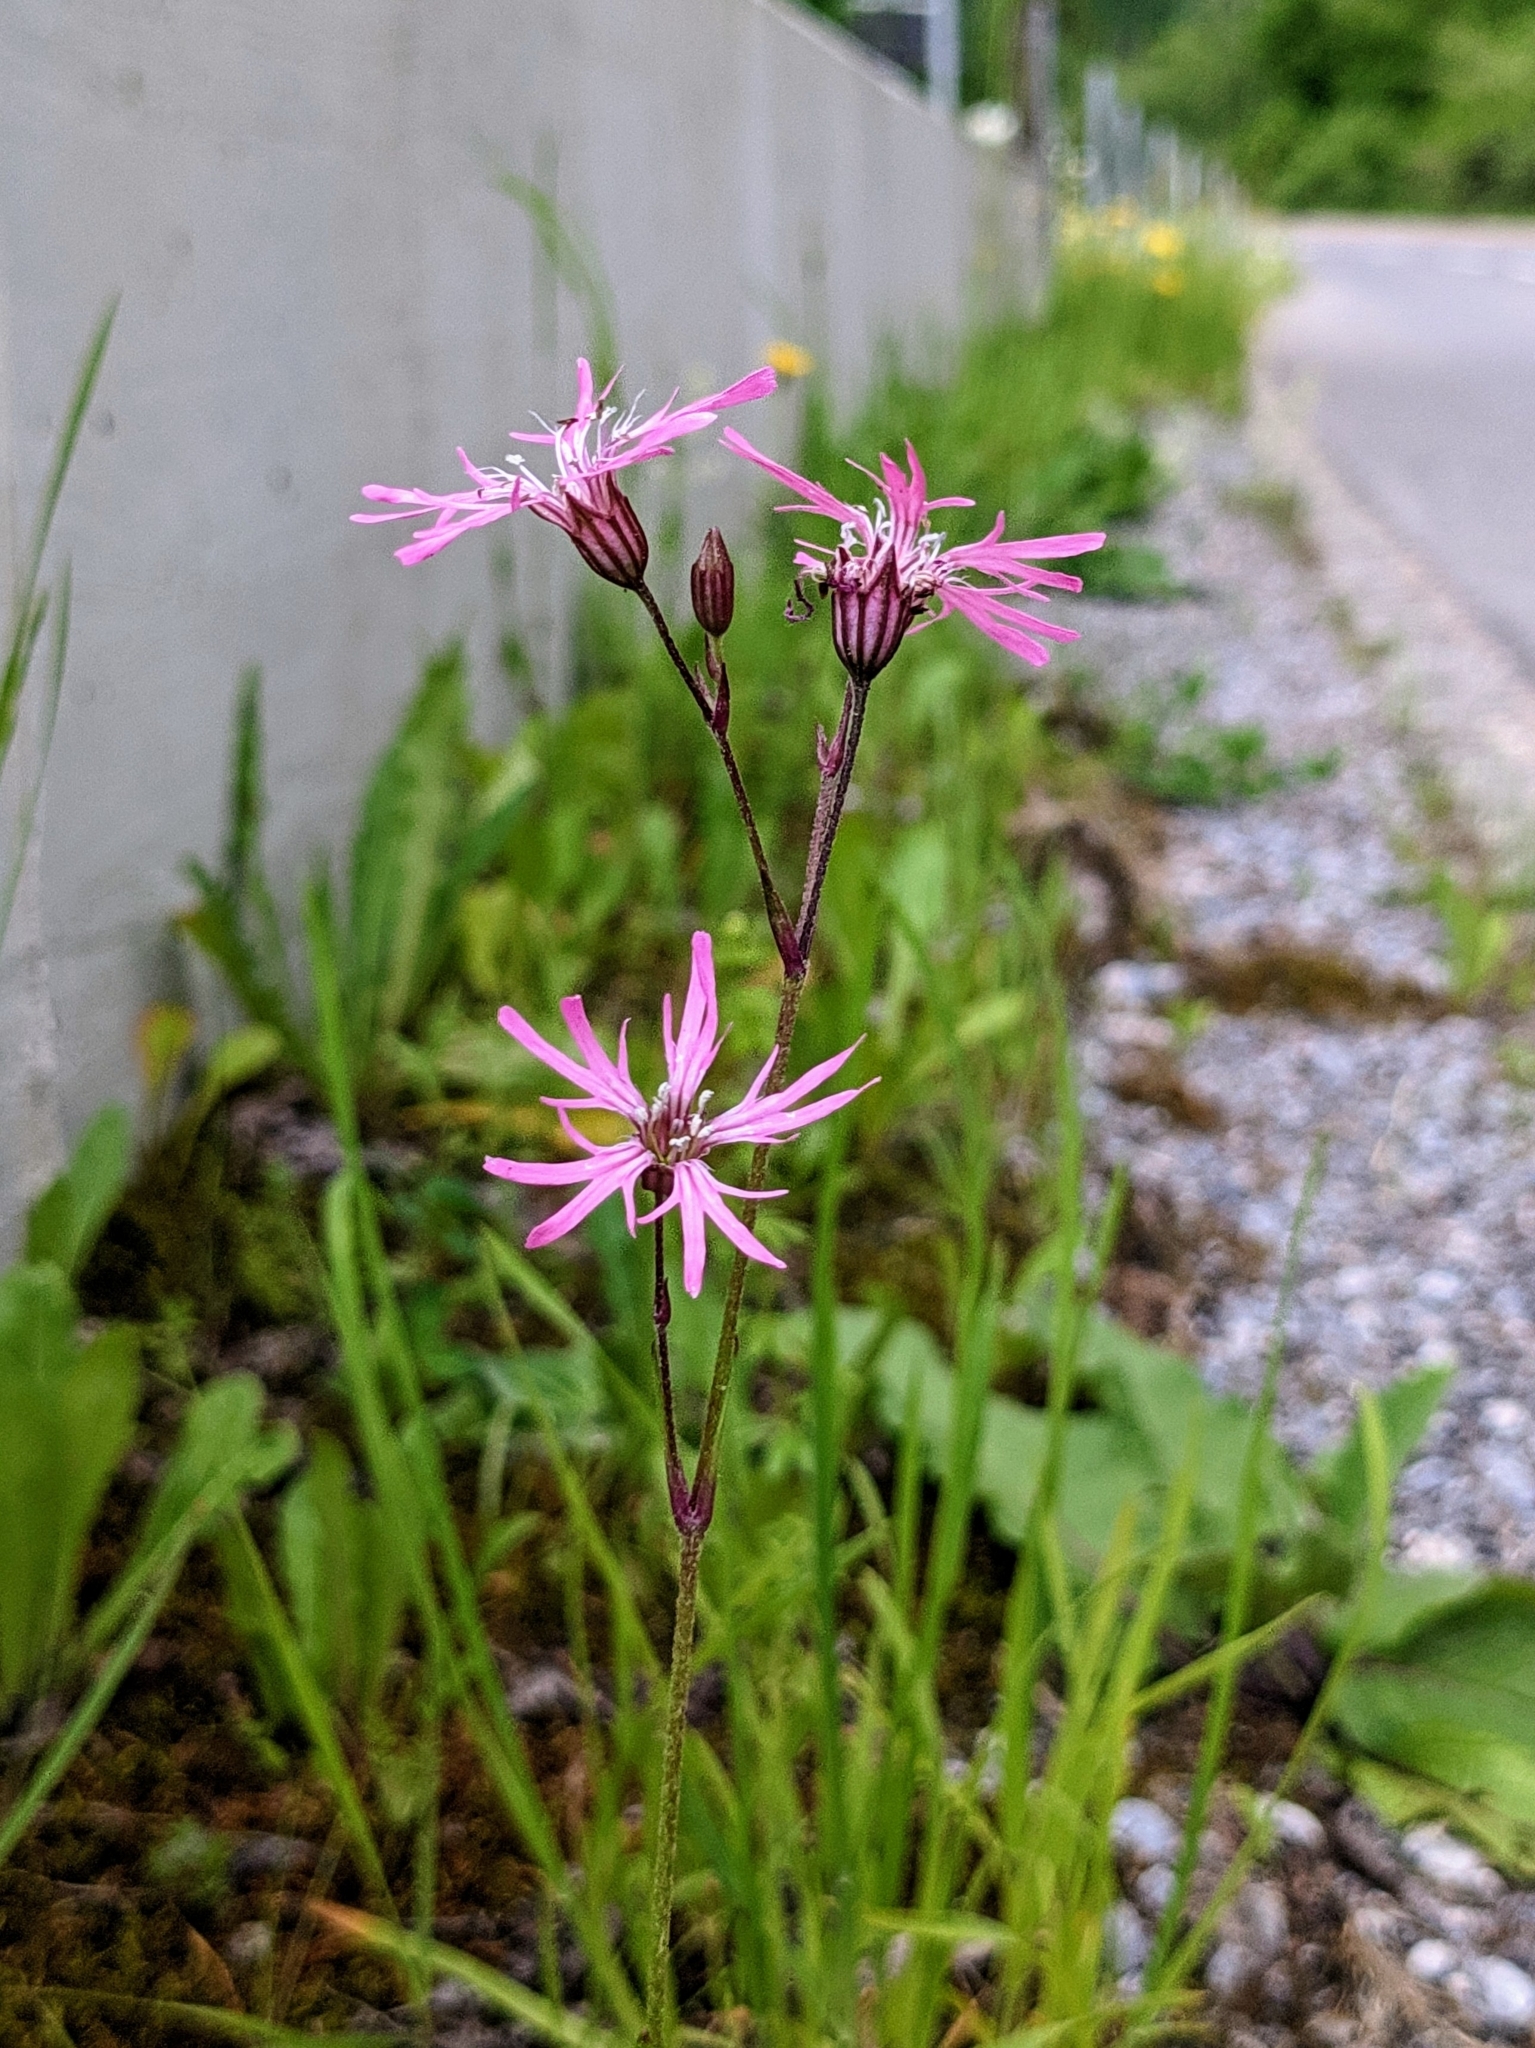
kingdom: Plantae
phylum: Tracheophyta
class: Magnoliopsida
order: Caryophyllales
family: Caryophyllaceae
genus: Silene
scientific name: Silene flos-cuculi
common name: Ragged-robin
